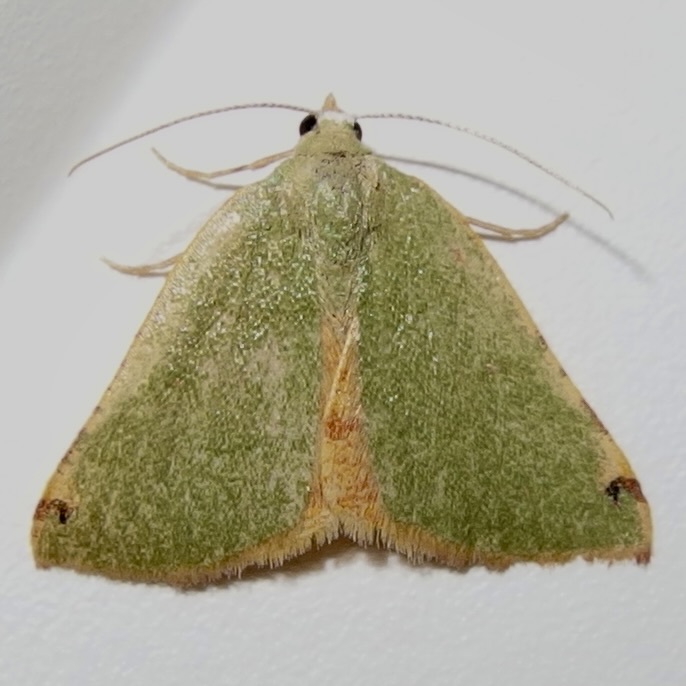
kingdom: Animalia
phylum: Arthropoda
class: Insecta
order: Lepidoptera
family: Geometridae
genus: Chloraspilates
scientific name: Chloraspilates bicoloraria
